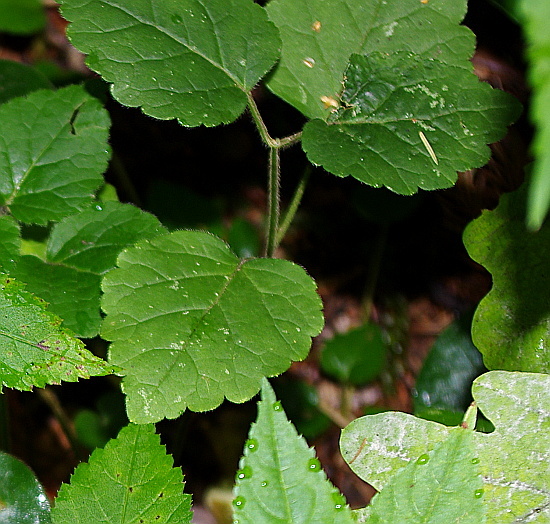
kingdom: Plantae
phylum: Tracheophyta
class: Magnoliopsida
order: Lamiales
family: Lamiaceae
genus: Lamium
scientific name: Lamium galeobdolon
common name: Yellow archangel
